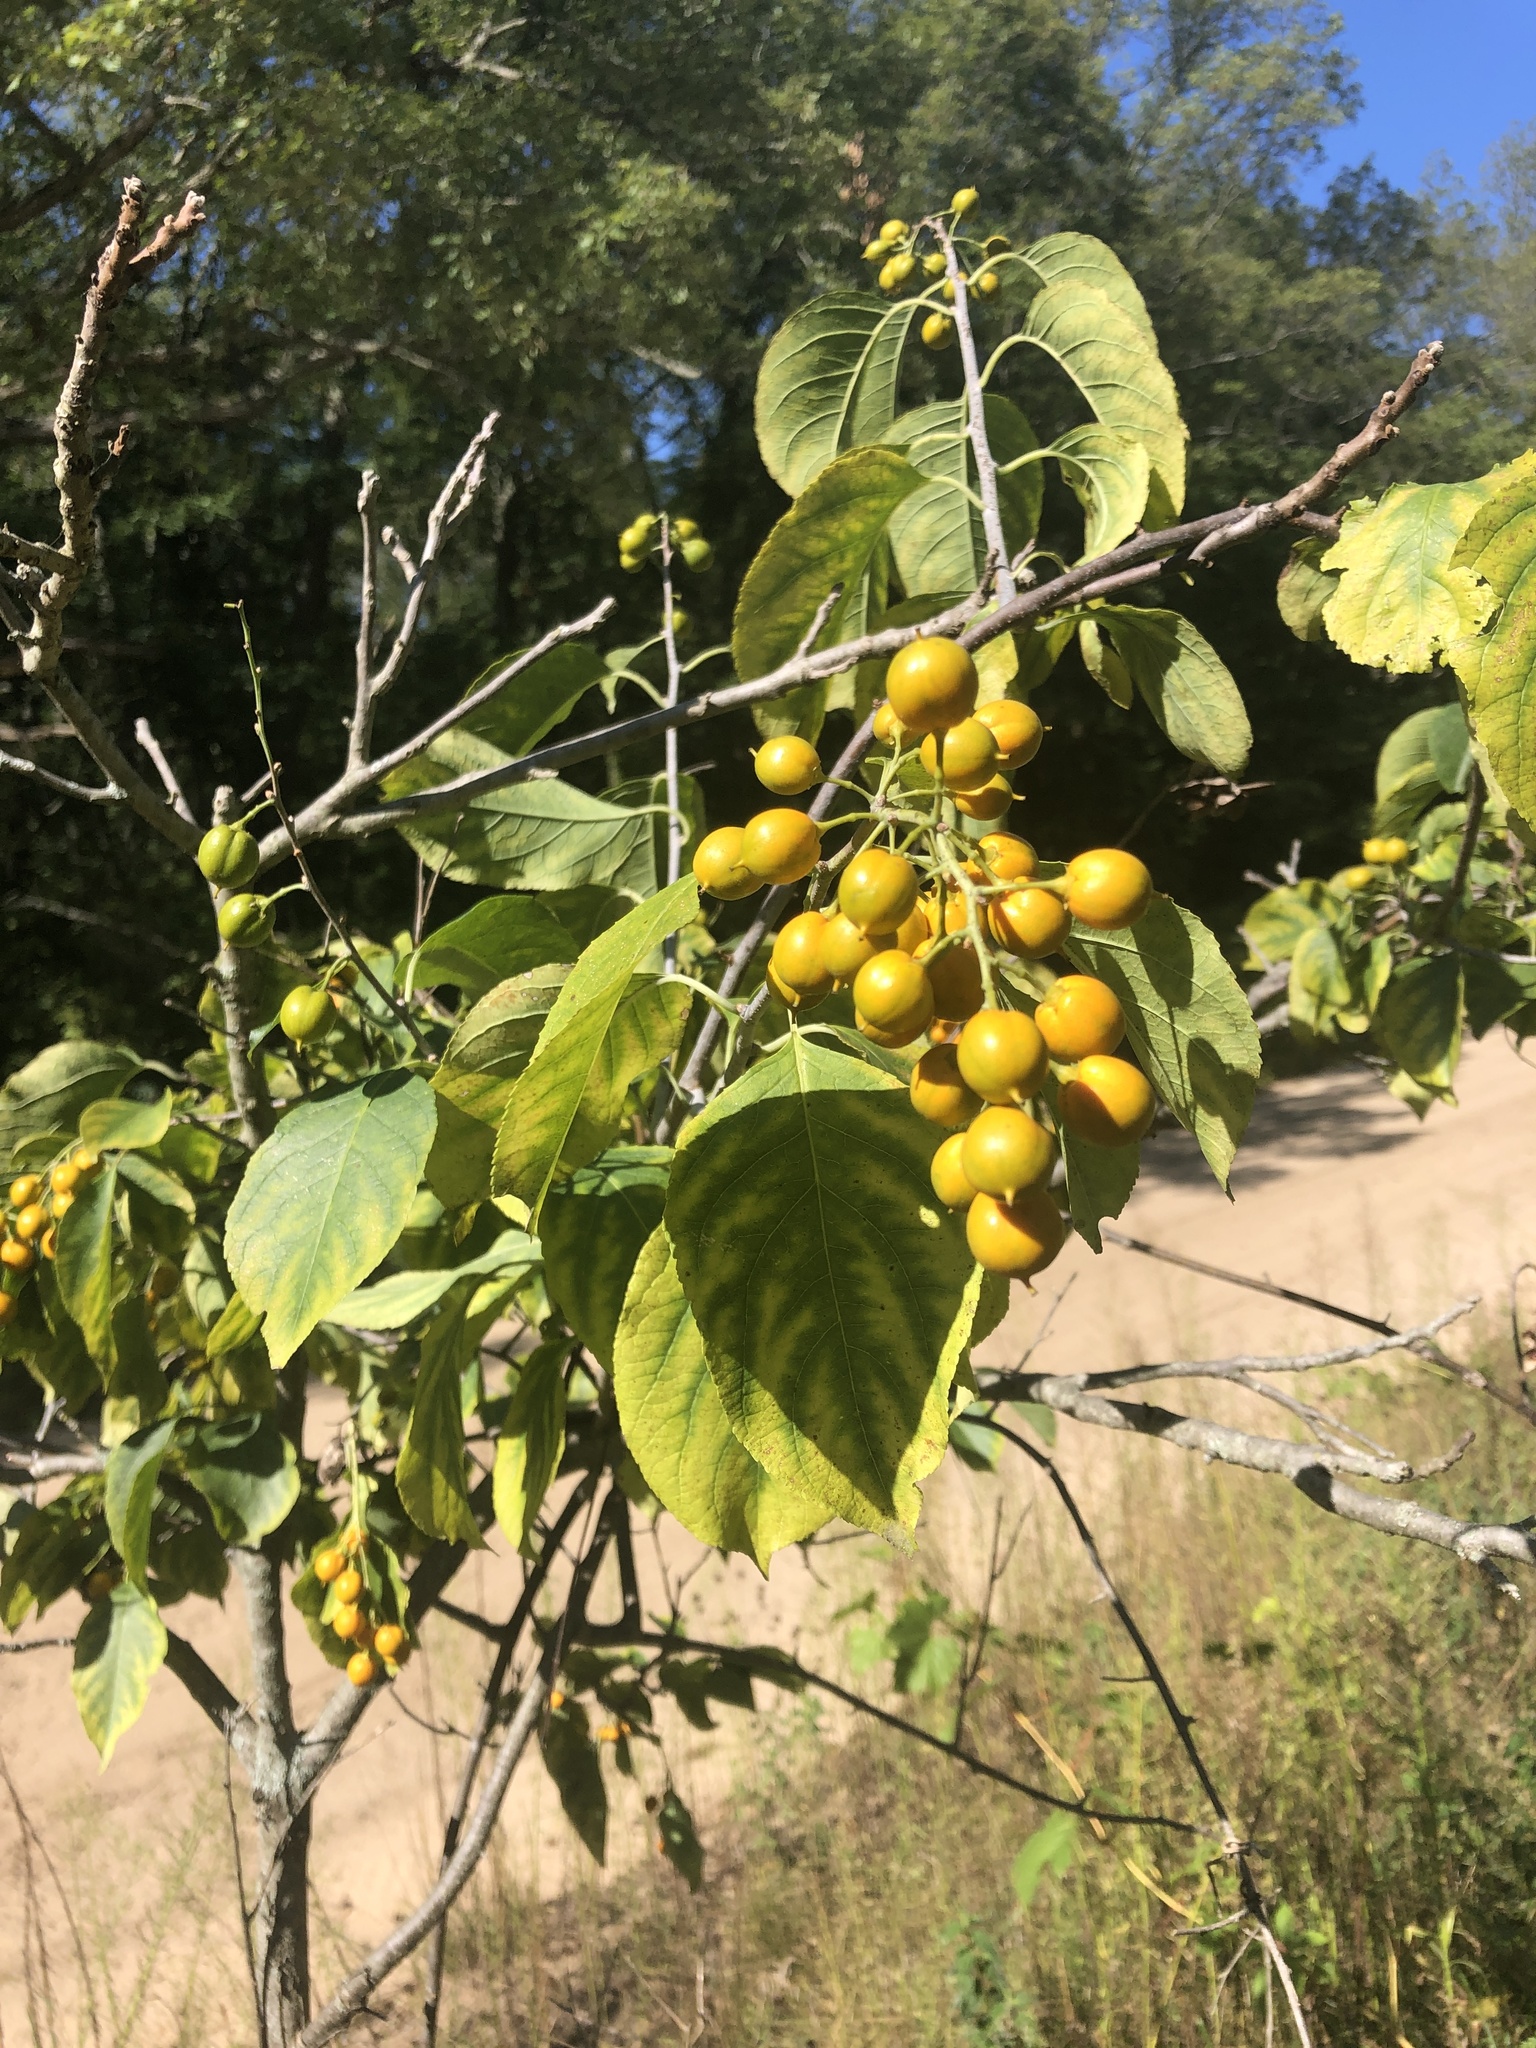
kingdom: Plantae
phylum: Tracheophyta
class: Magnoliopsida
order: Celastrales
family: Celastraceae
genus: Celastrus
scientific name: Celastrus scandens
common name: American bittersweet
